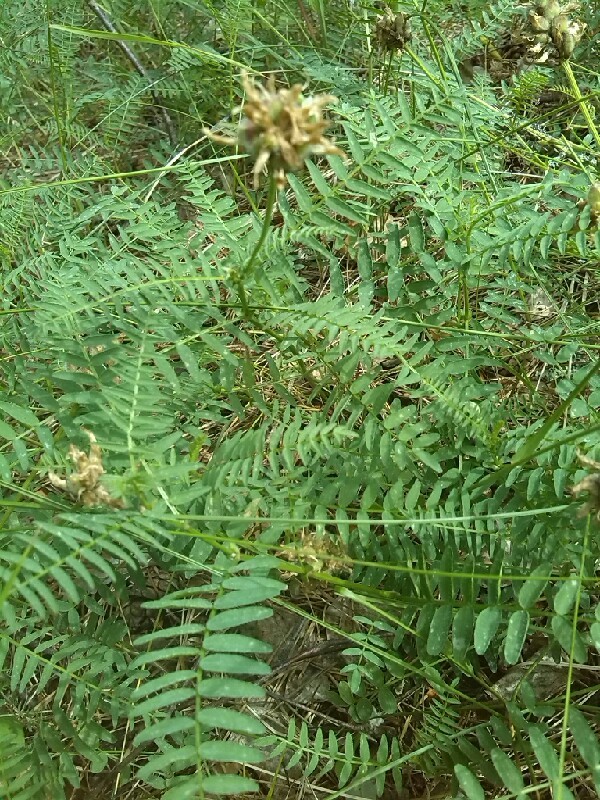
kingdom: Plantae
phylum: Tracheophyta
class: Magnoliopsida
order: Fabales
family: Fabaceae
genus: Astragalus
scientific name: Astragalus danicus
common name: Purple milk-vetch
